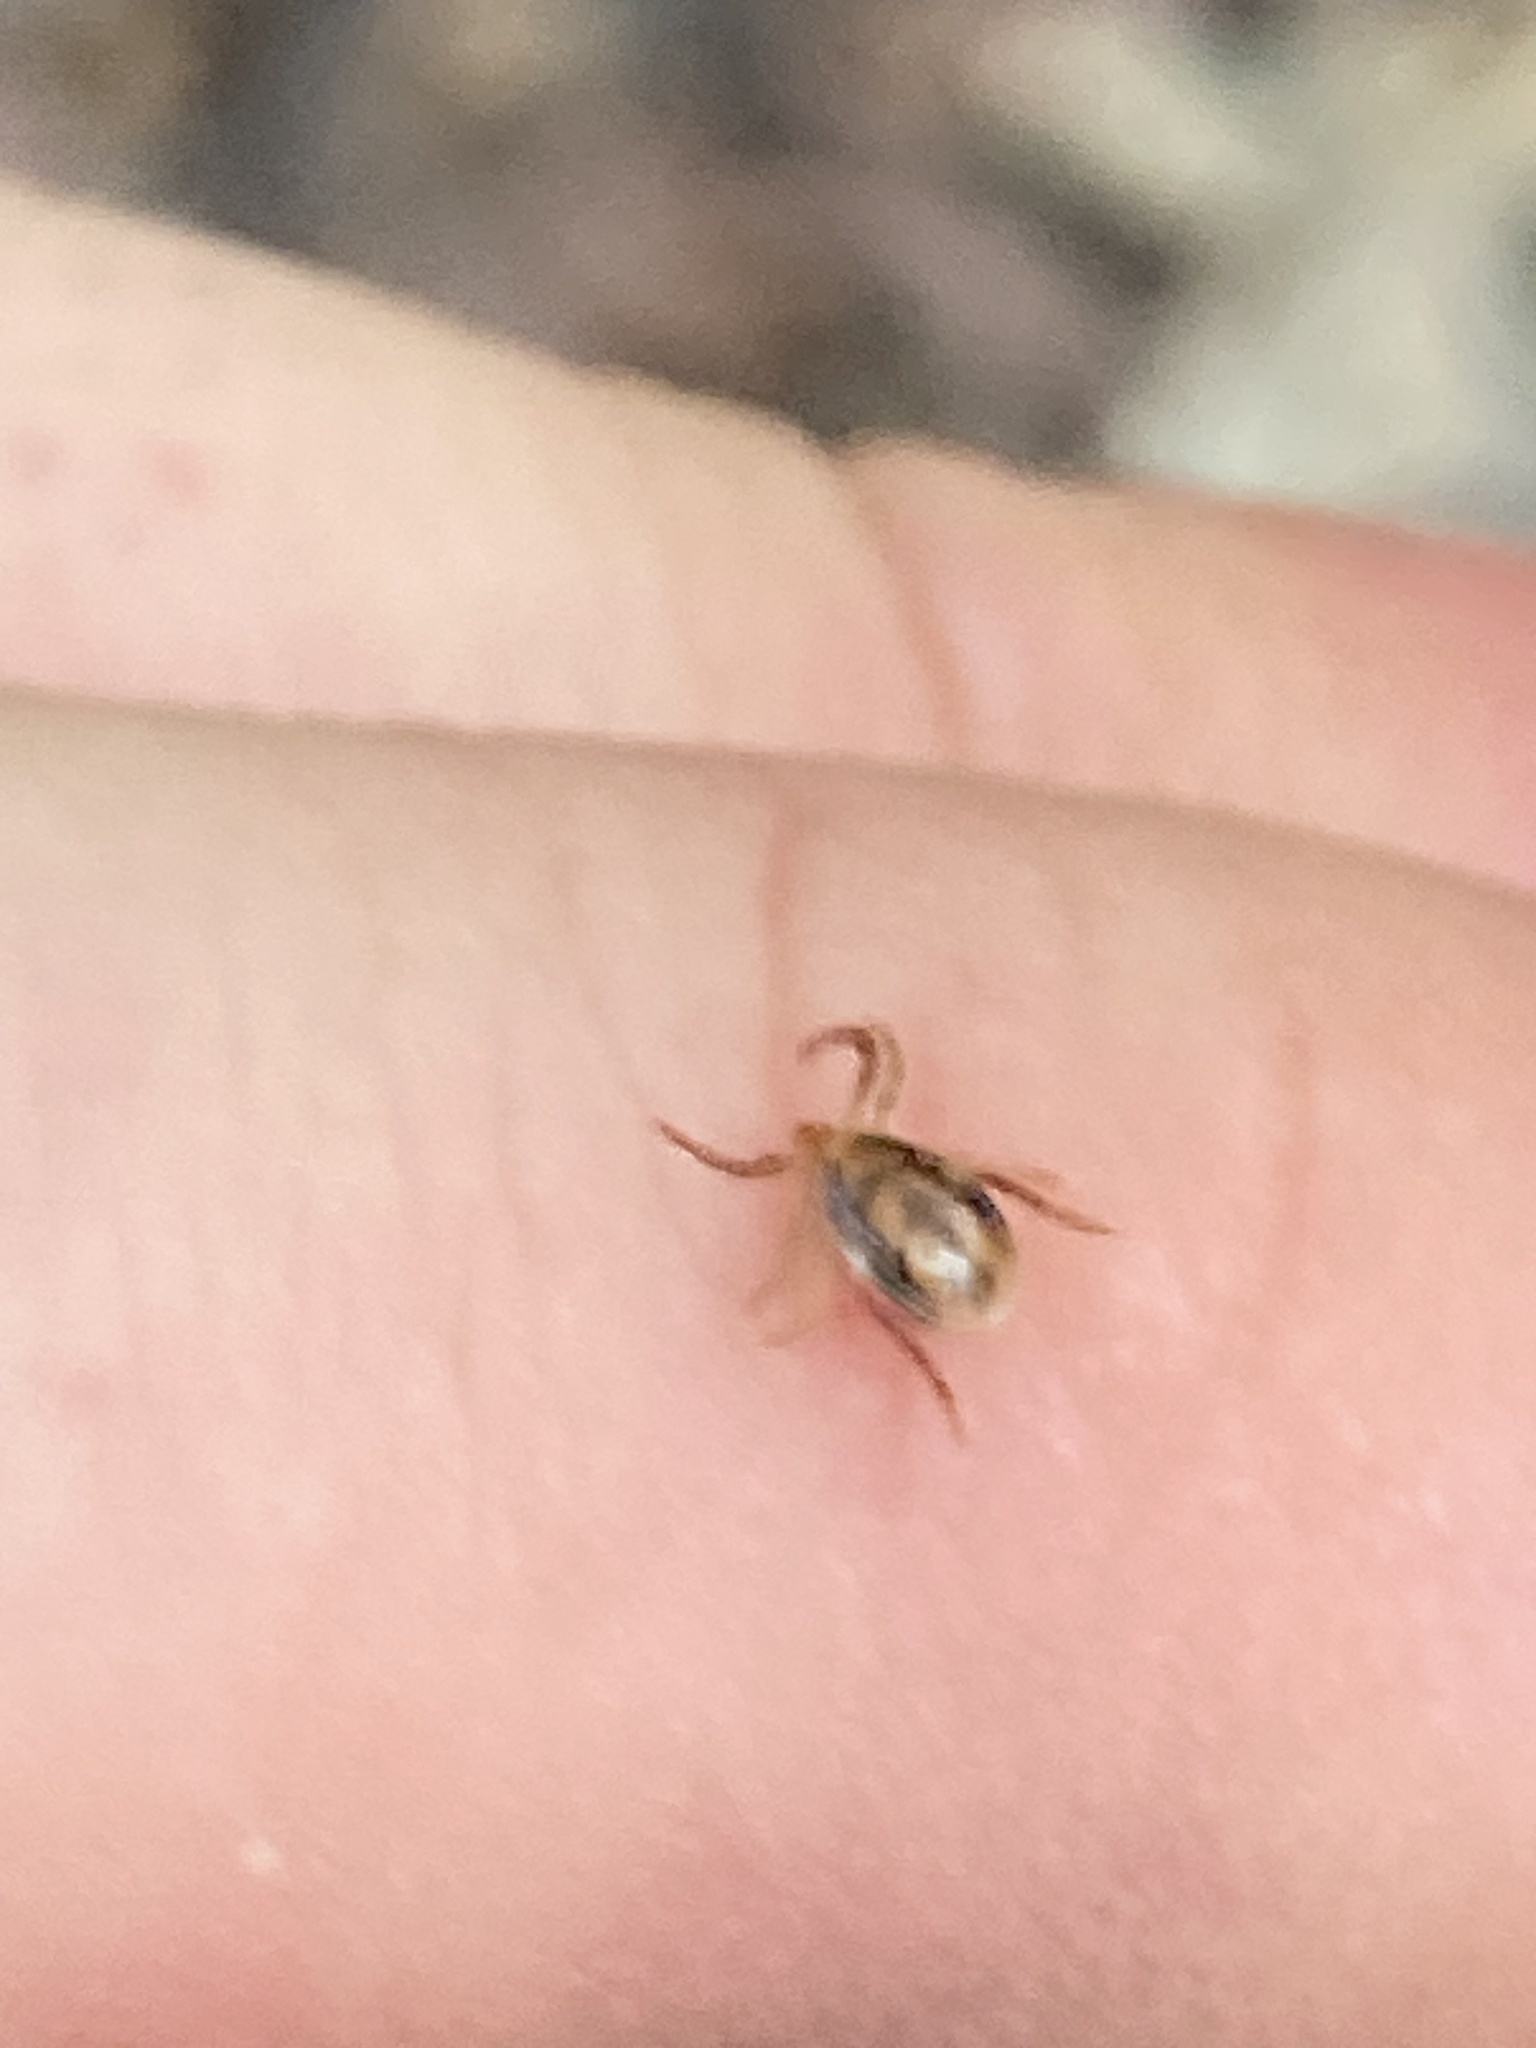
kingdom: Animalia
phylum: Arthropoda
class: Arachnida
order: Ixodida
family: Ixodidae
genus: Ixodes
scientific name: Ixodes holocyclus
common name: Australian paralysis tick
